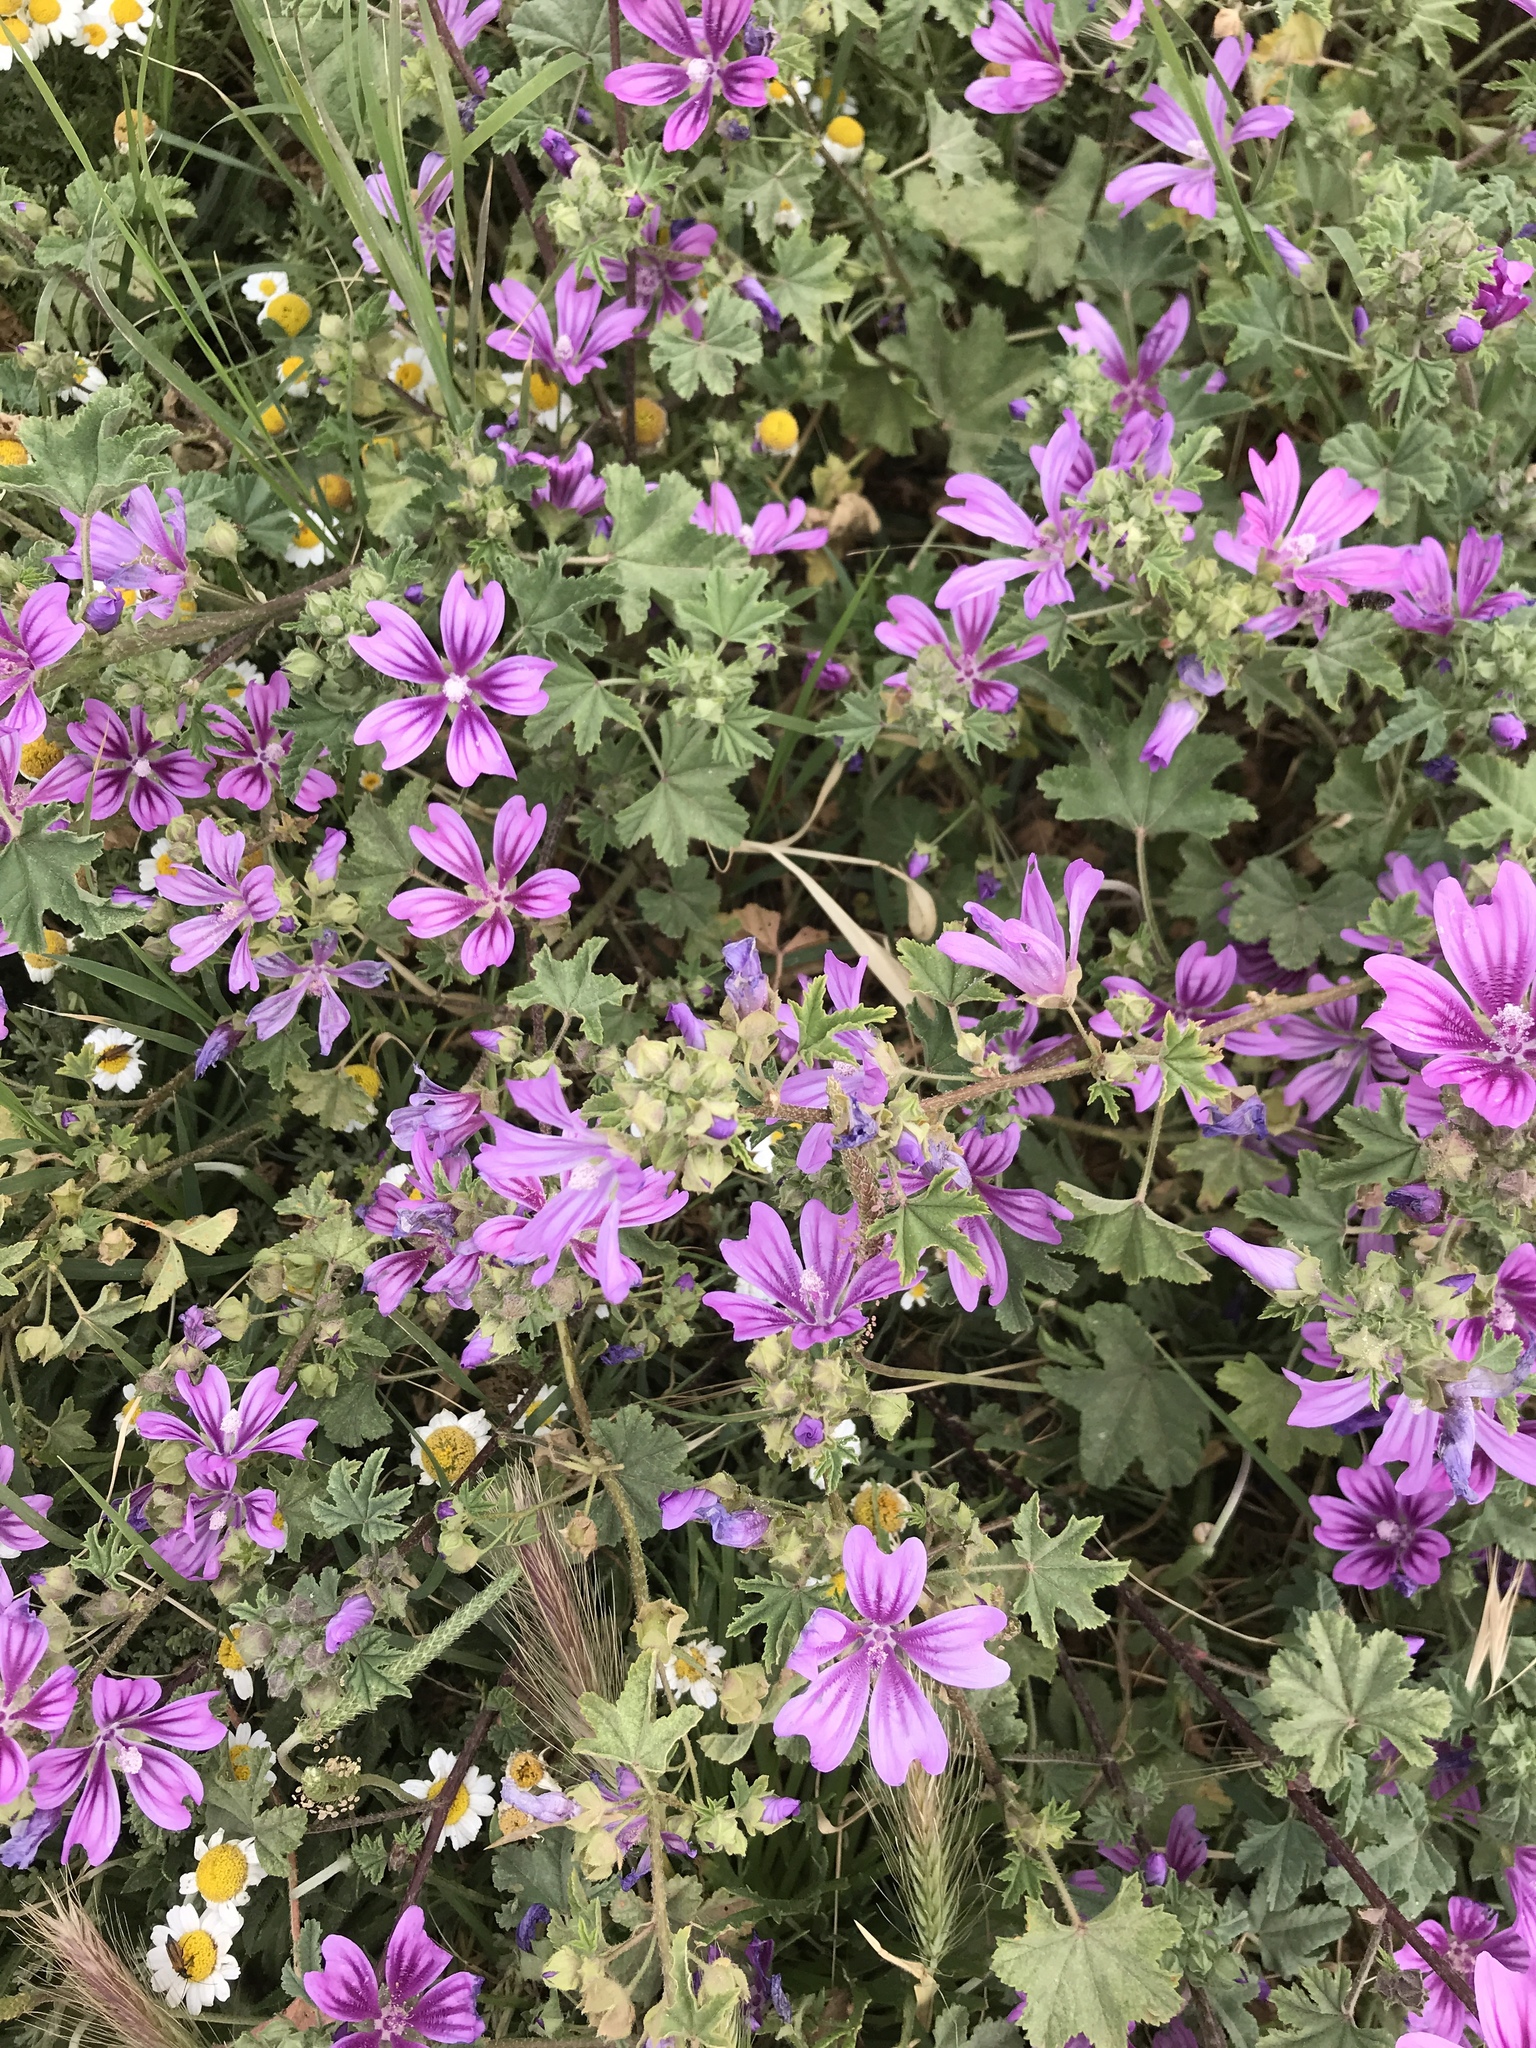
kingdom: Plantae
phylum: Tracheophyta
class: Magnoliopsida
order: Malvales
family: Malvaceae
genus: Malva
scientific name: Malva sylvestris
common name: Common mallow
